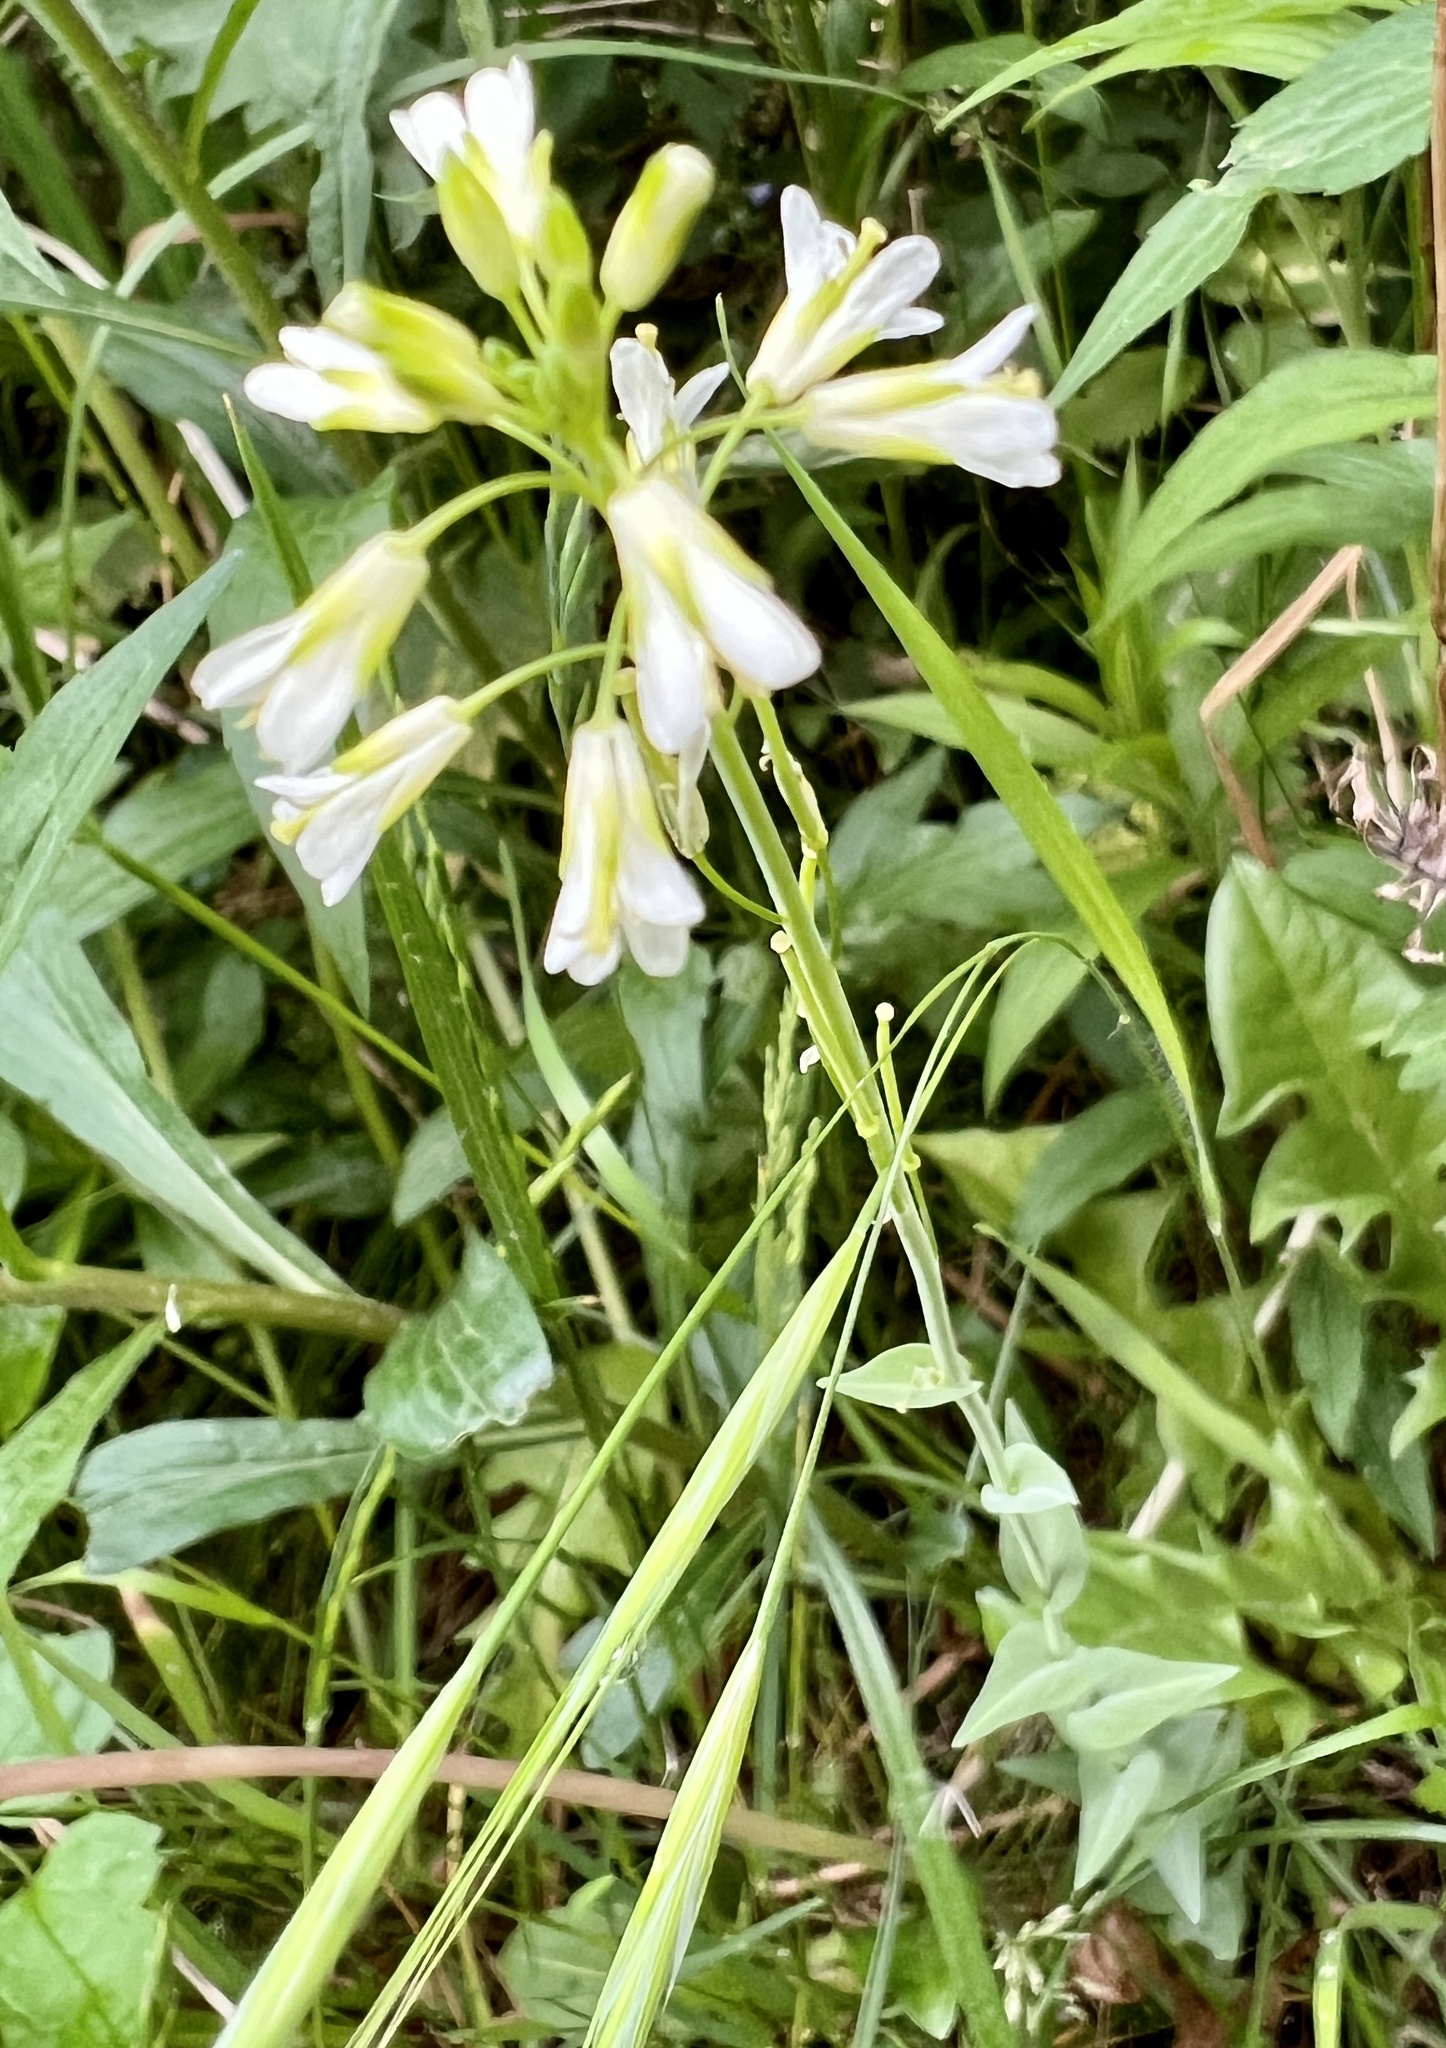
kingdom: Plantae
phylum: Tracheophyta
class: Magnoliopsida
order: Brassicales
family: Brassicaceae
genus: Turritis
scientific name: Turritis glabra
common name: Tower rockcress
